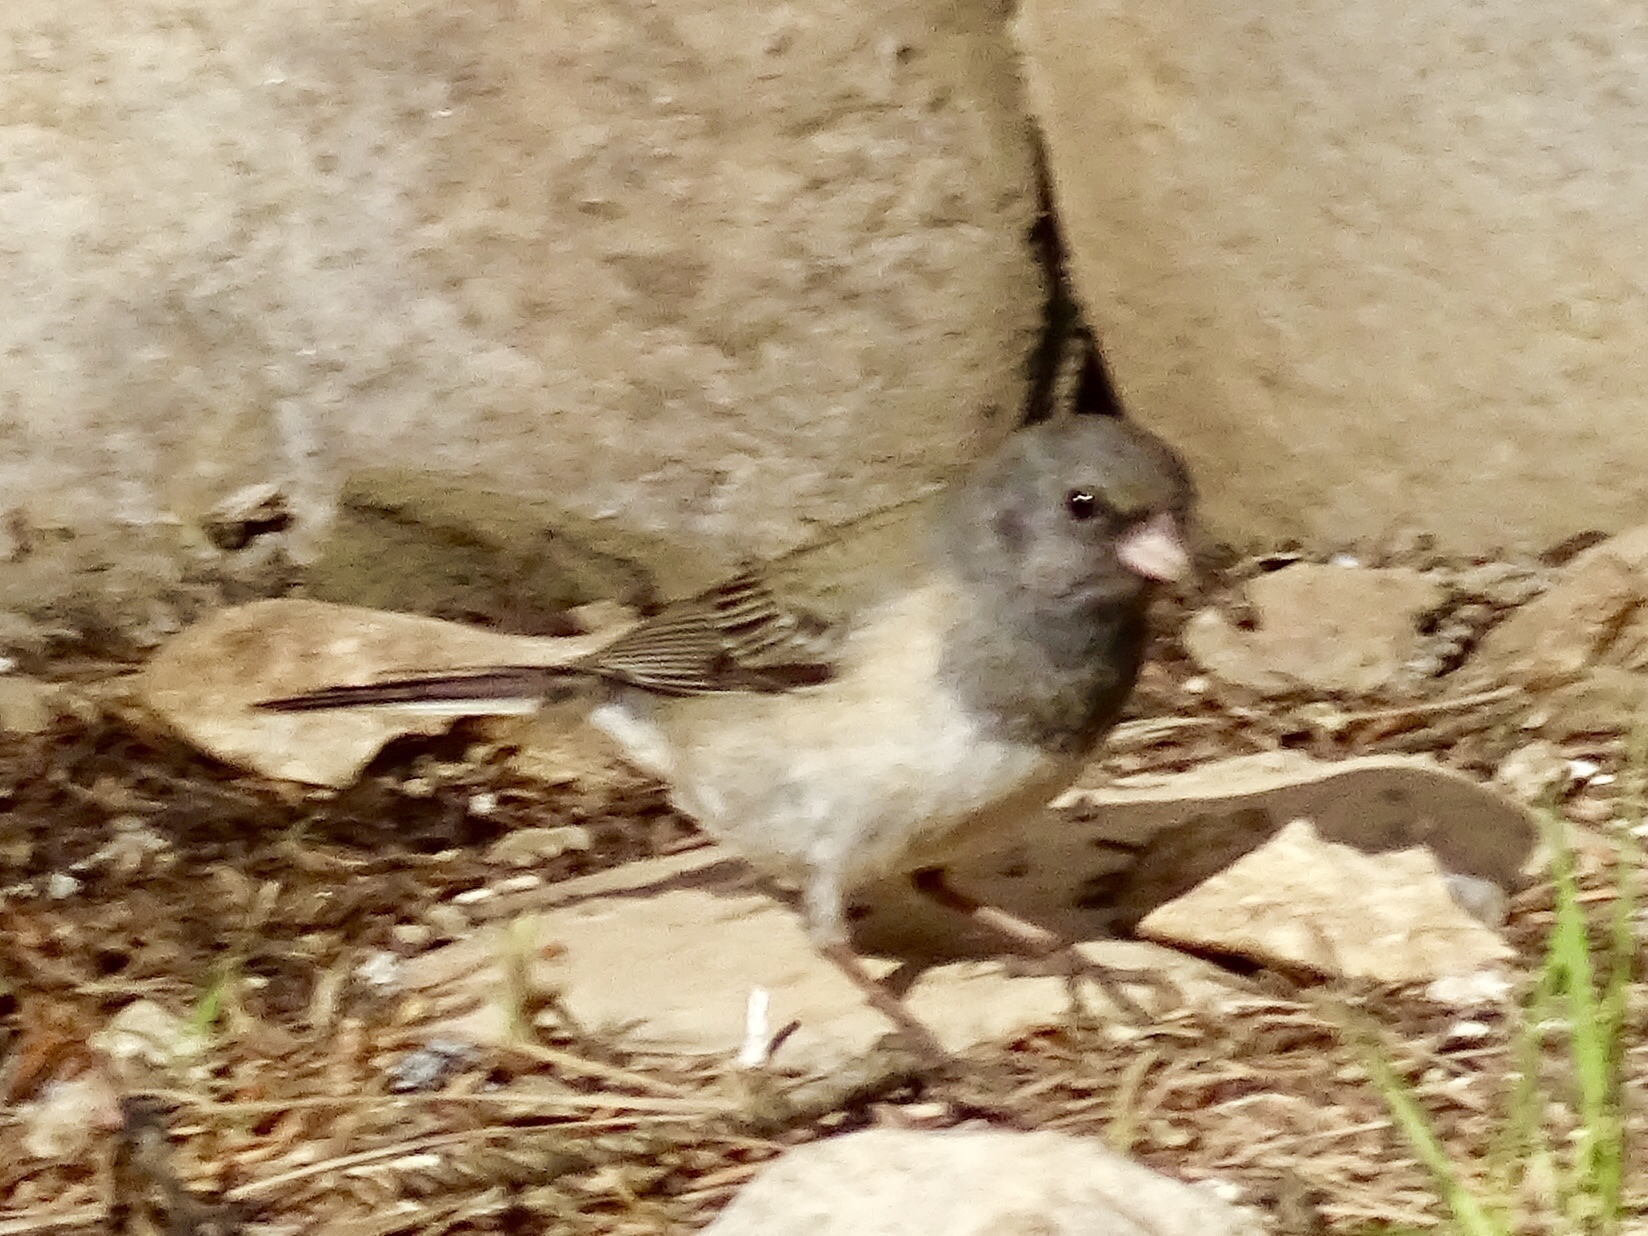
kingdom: Animalia
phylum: Chordata
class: Aves
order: Passeriformes
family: Passerellidae
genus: Junco
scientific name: Junco hyemalis
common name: Dark-eyed junco
